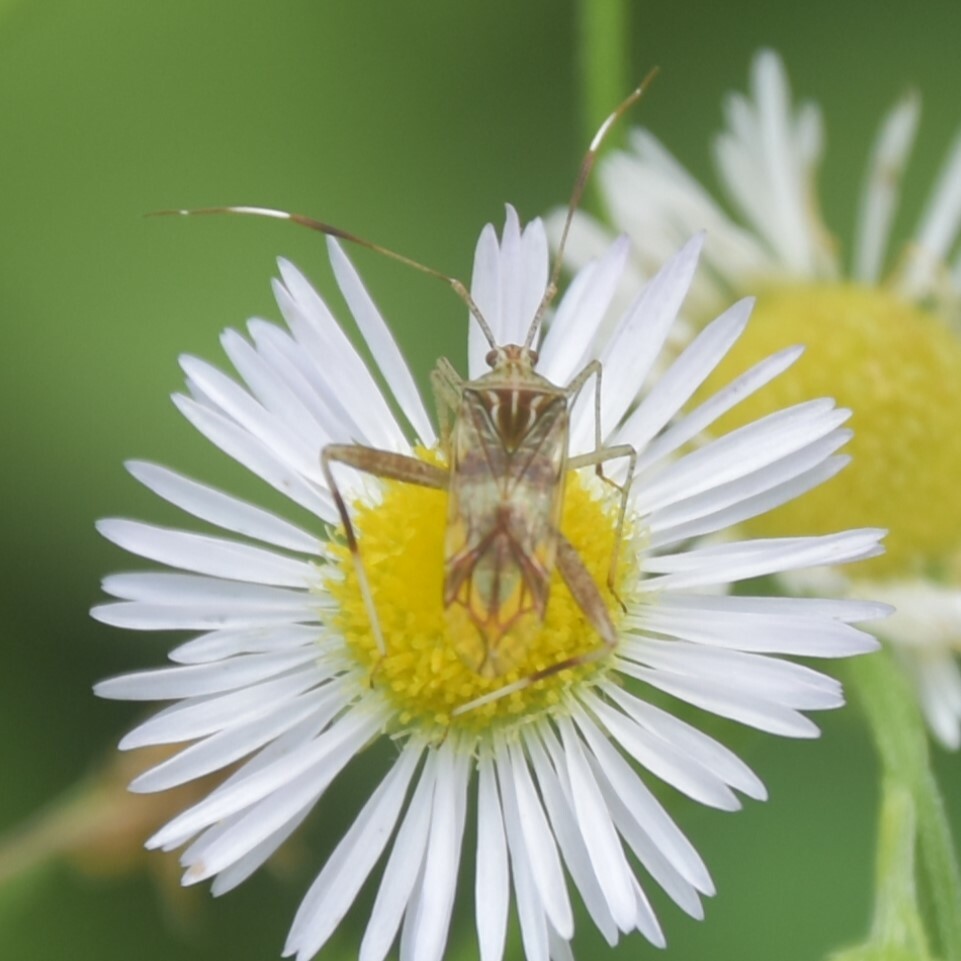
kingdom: Animalia
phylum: Arthropoda
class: Insecta
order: Hemiptera
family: Miridae
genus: Isabel
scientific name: Isabel ravana
